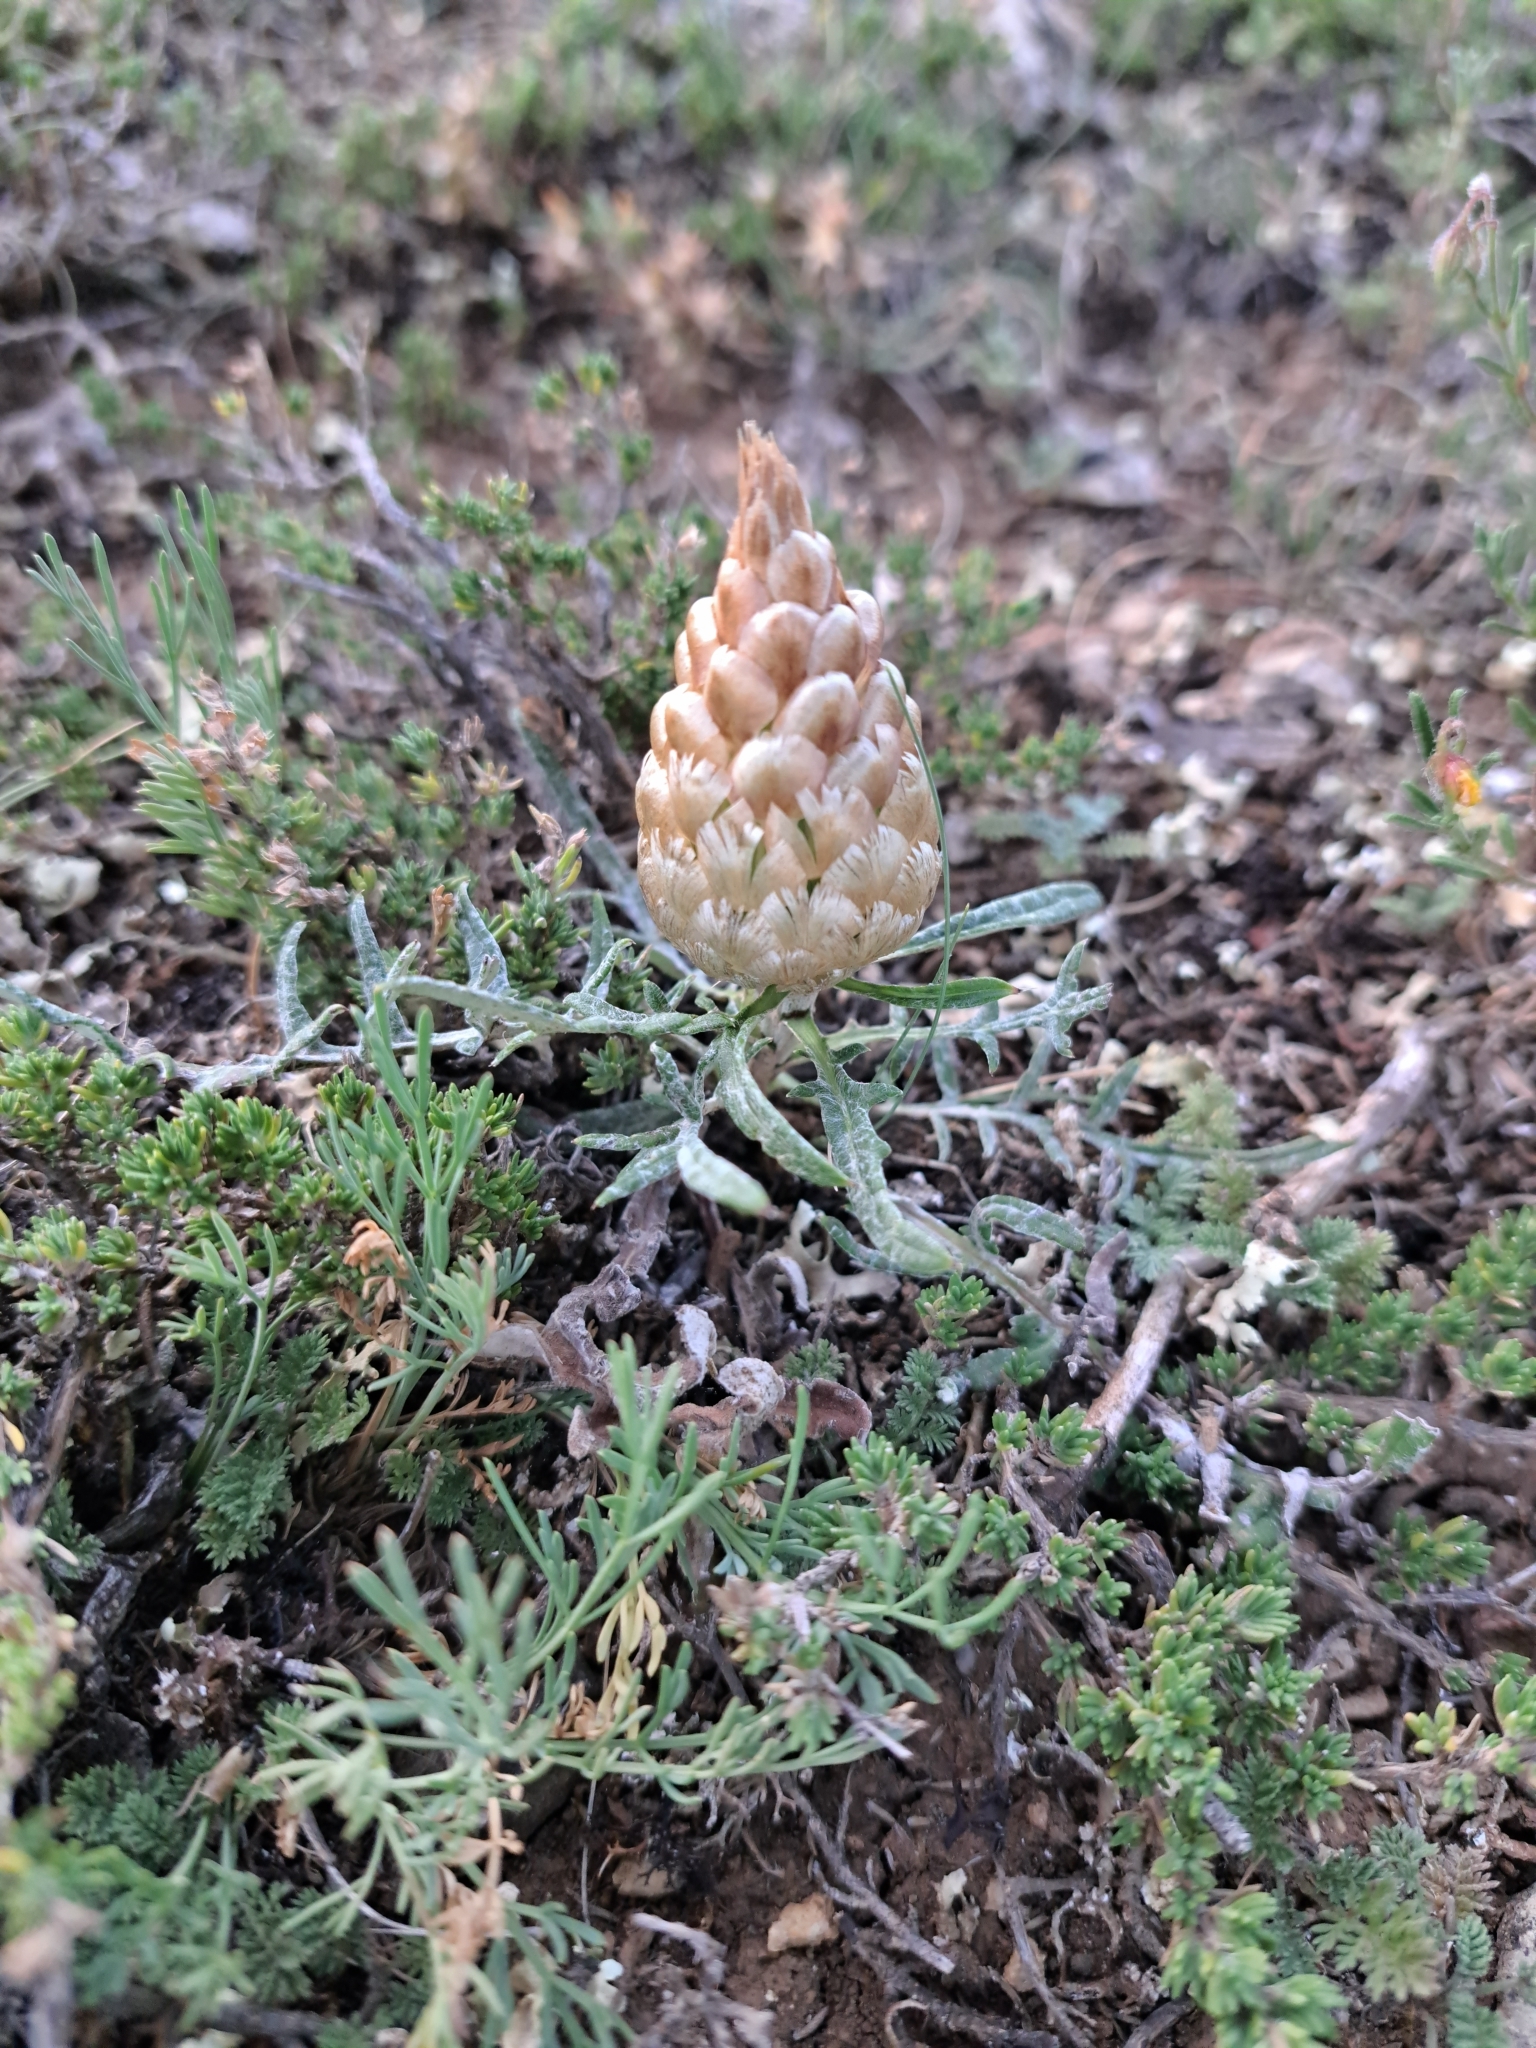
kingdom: Plantae
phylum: Tracheophyta
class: Magnoliopsida
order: Asterales
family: Asteraceae
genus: Leuzea
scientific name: Leuzea conifera
